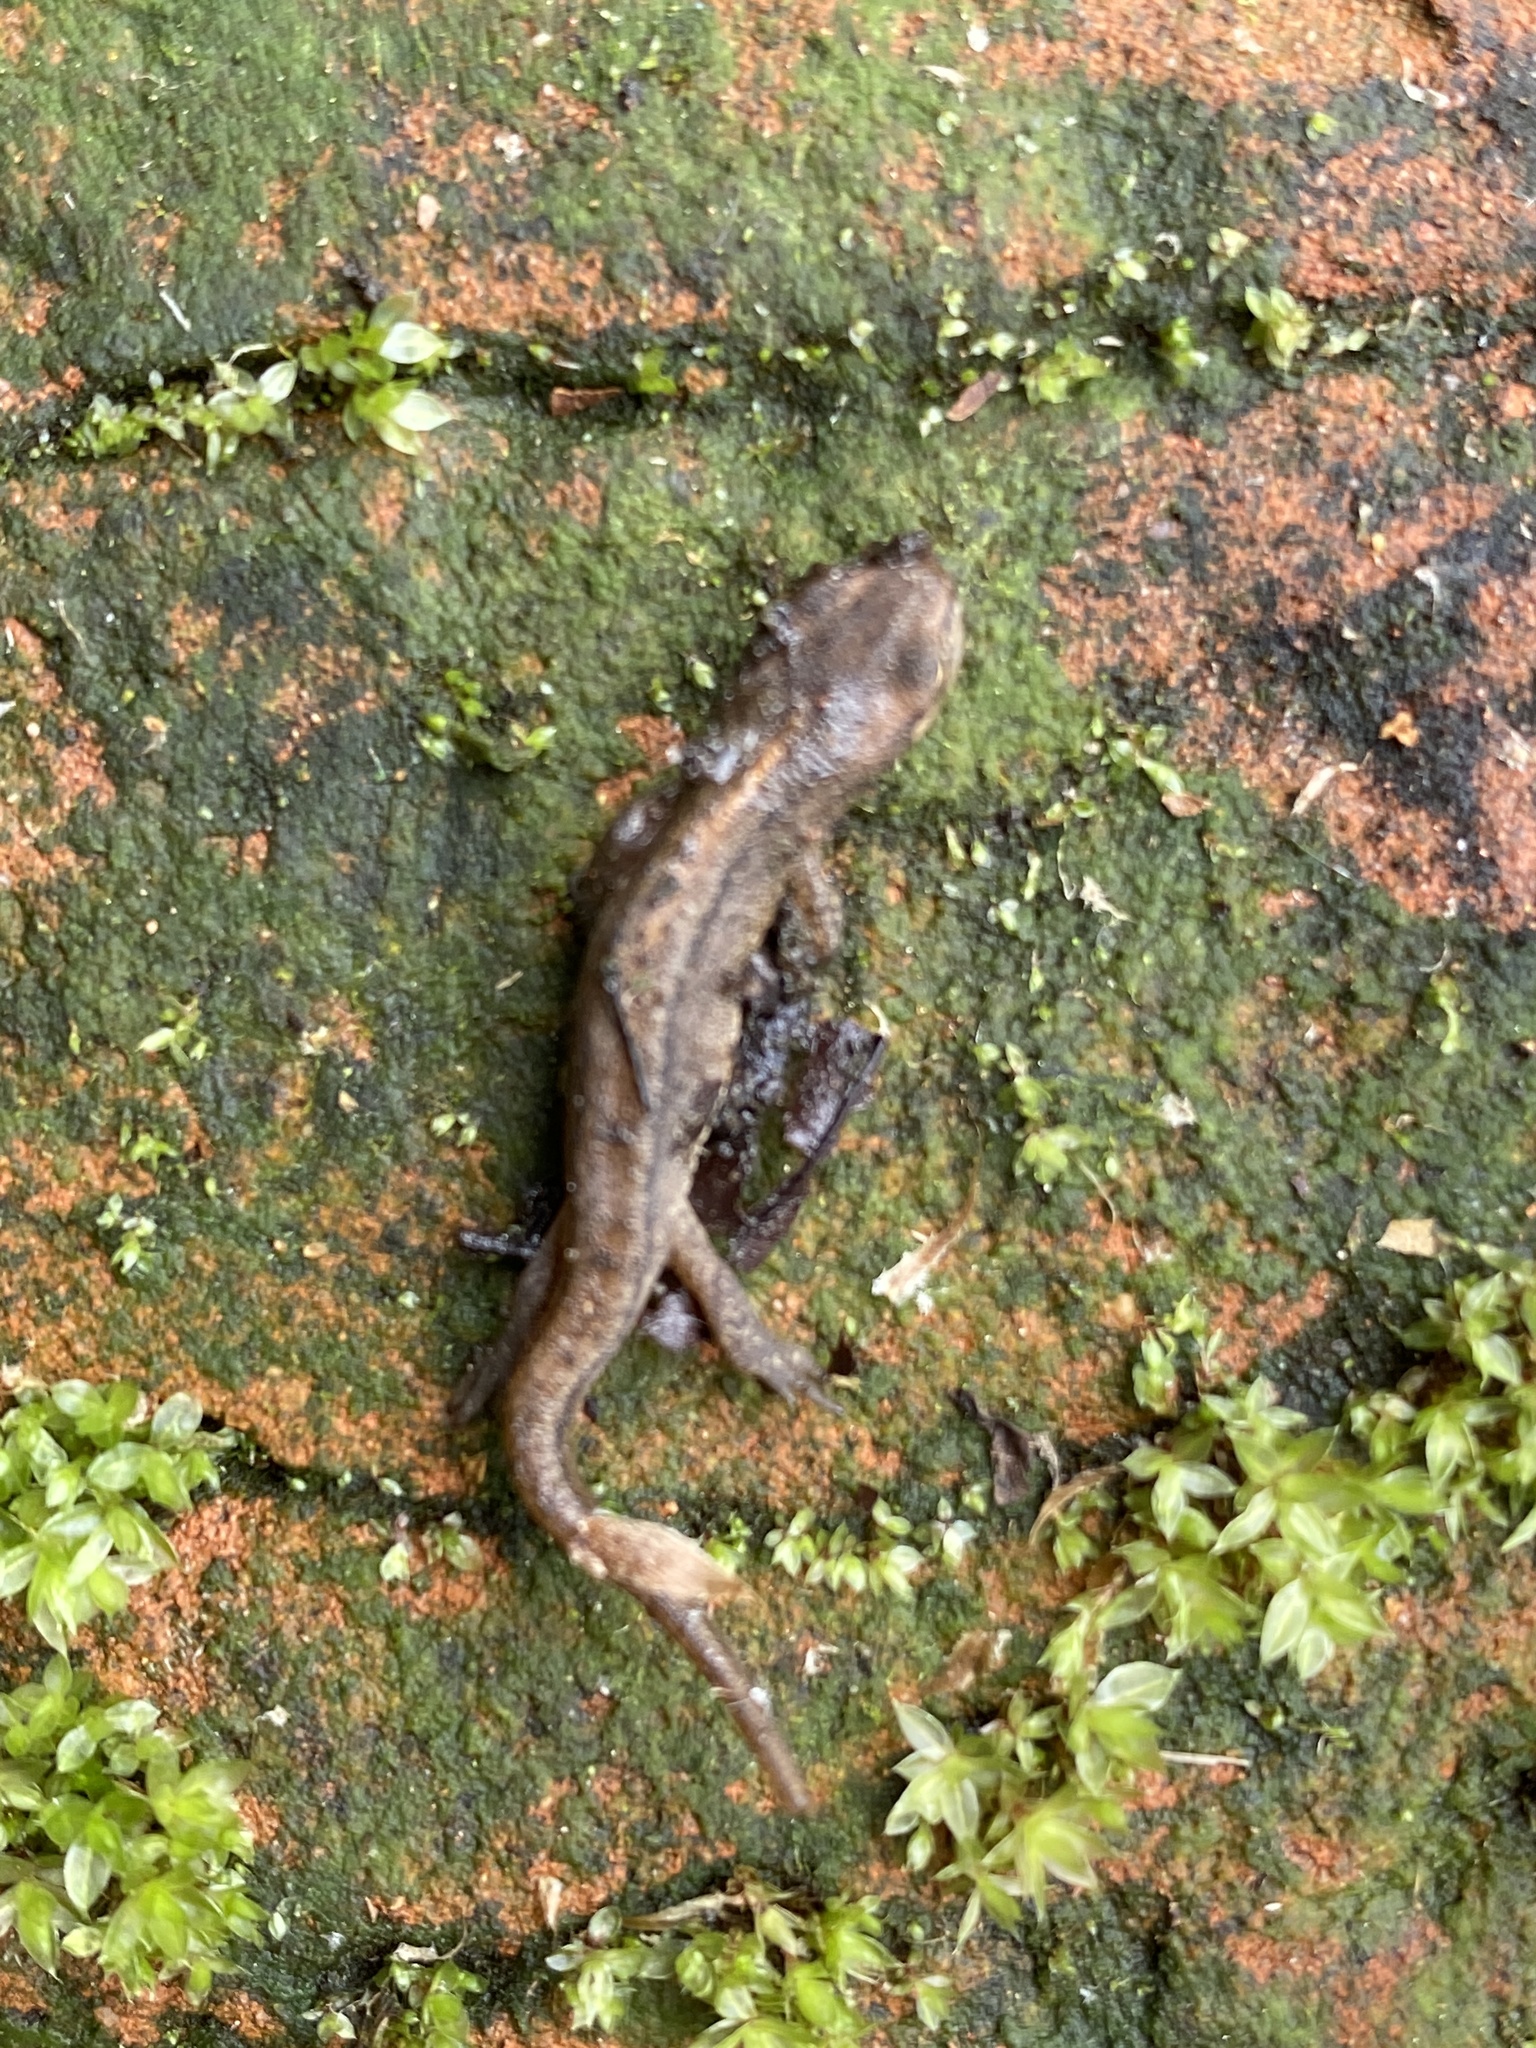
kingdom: Animalia
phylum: Chordata
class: Amphibia
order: Caudata
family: Salamandridae
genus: Lissotriton
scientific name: Lissotriton vulgaris
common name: Smooth newt
